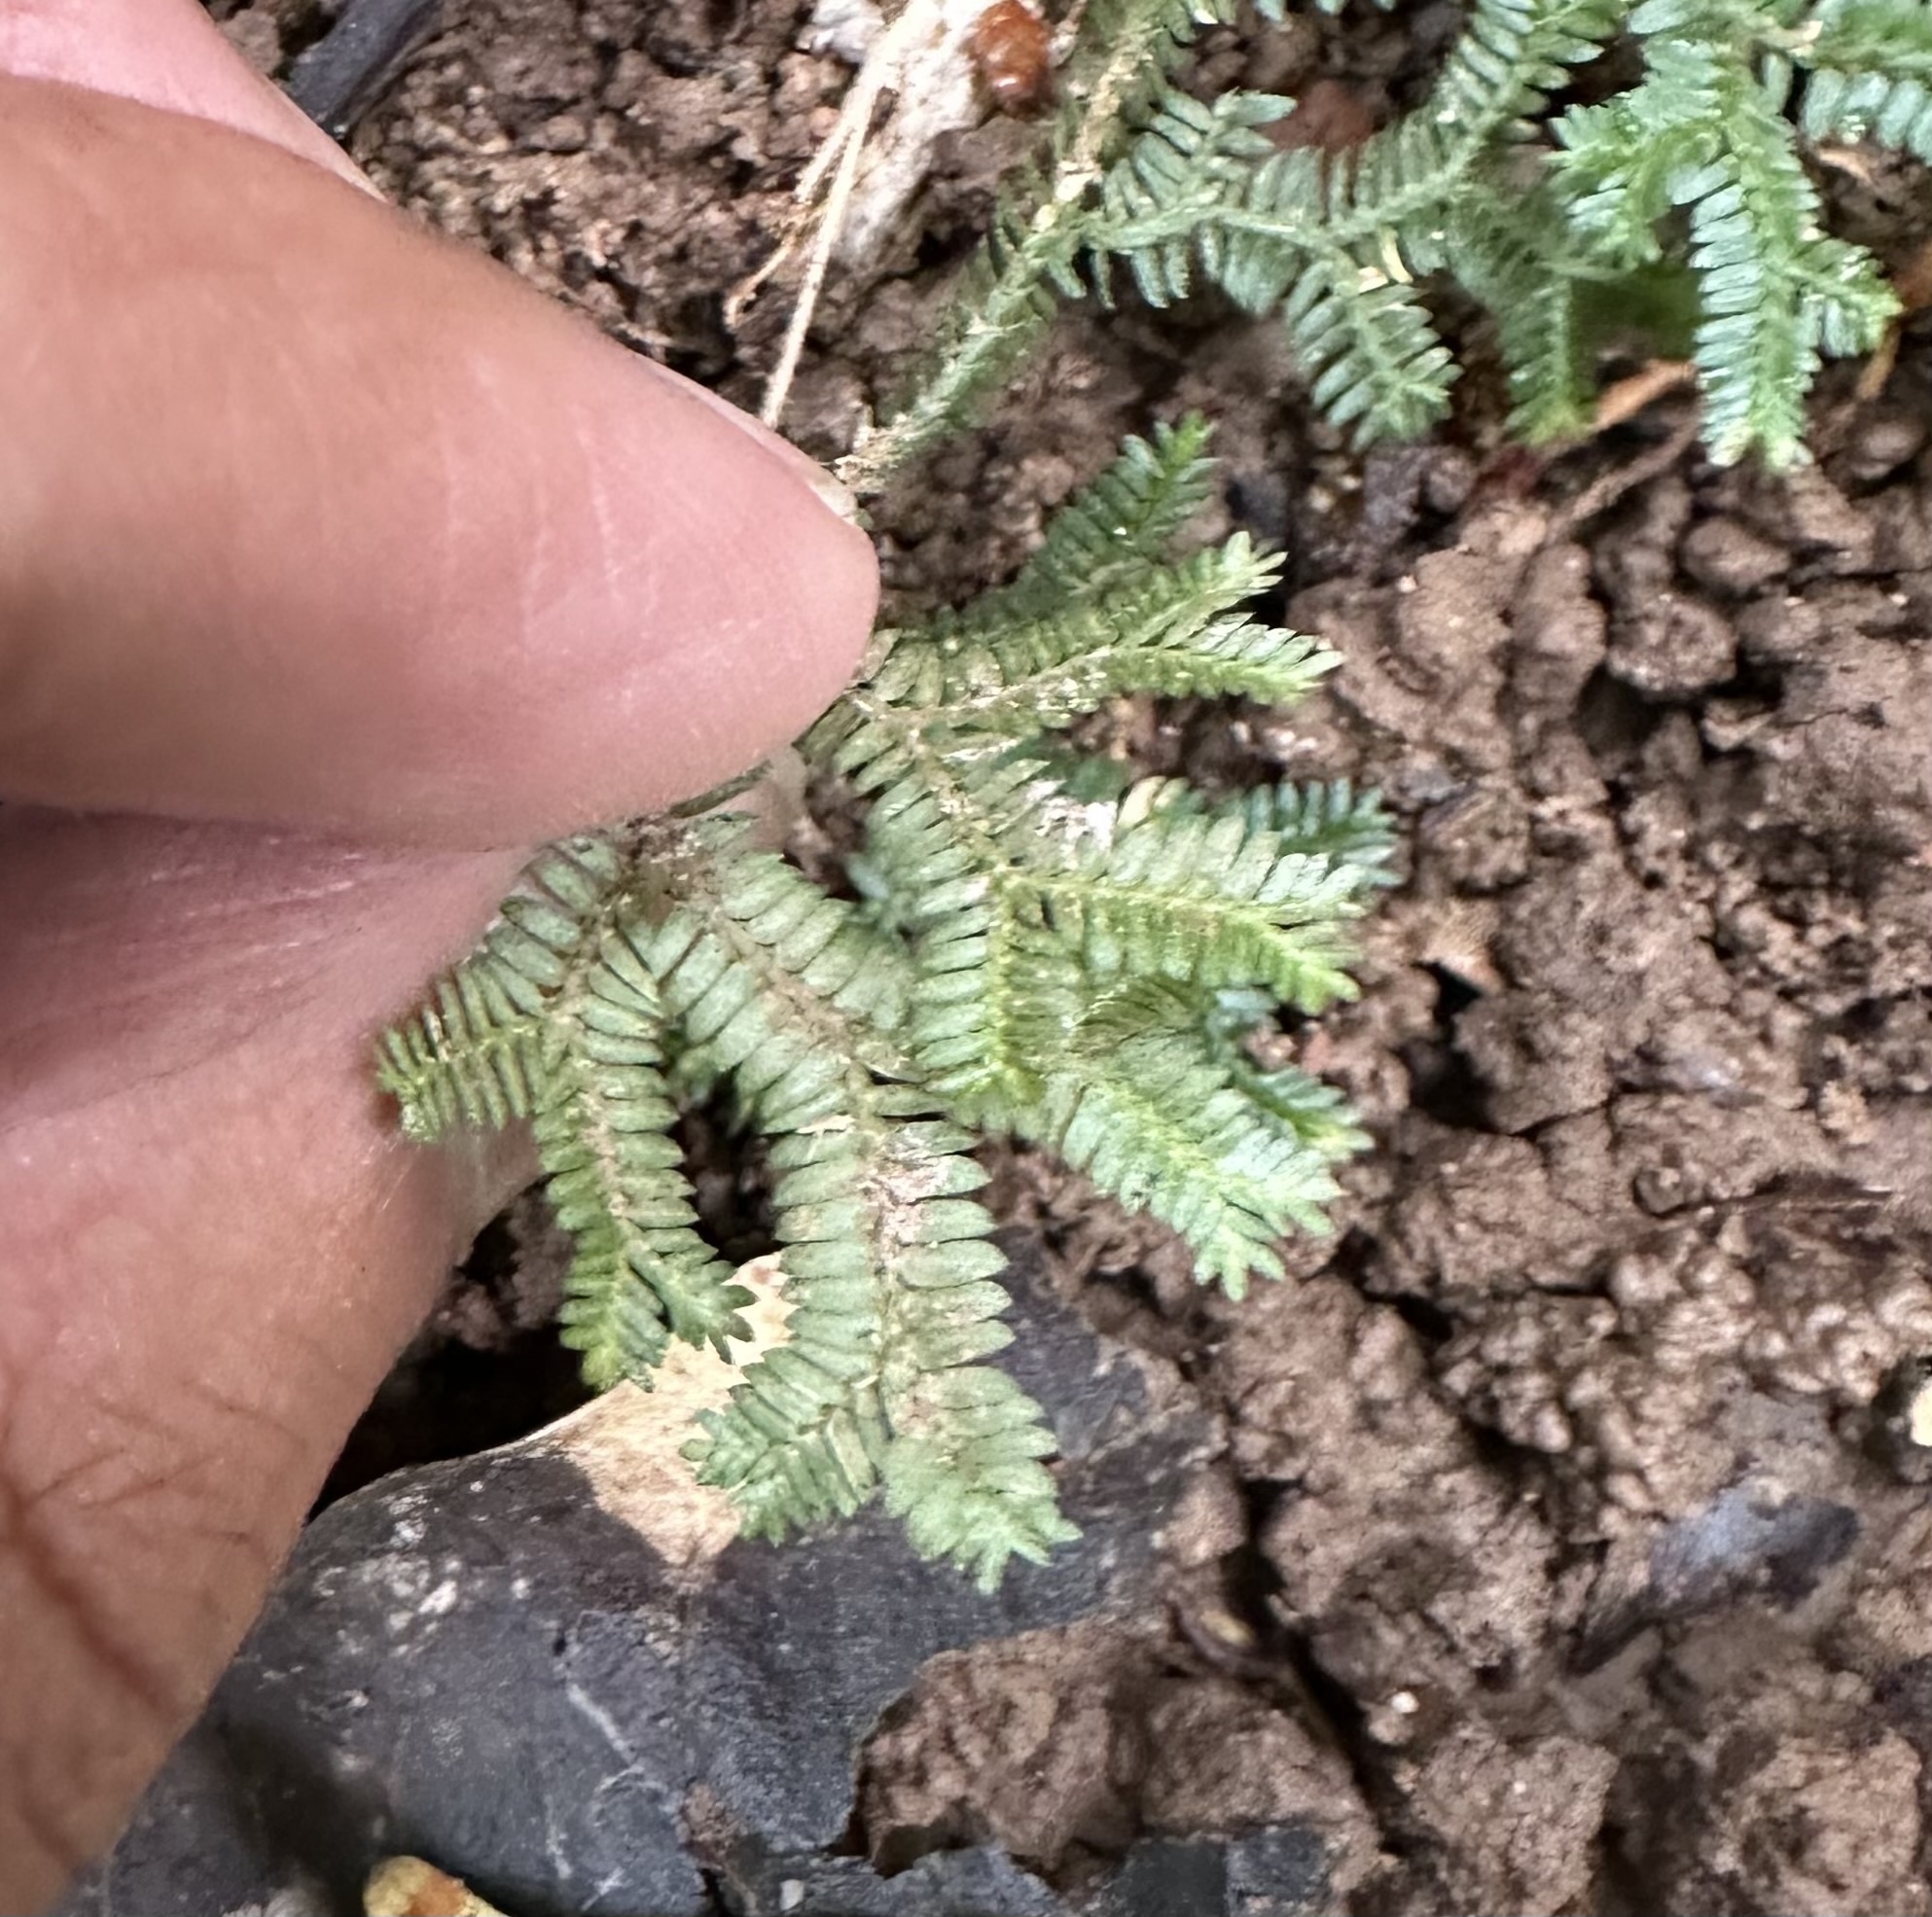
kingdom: Plantae
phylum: Tracheophyta
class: Lycopodiopsida
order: Selaginellales
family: Selaginellaceae
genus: Selaginella
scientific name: Selaginella australiensis
